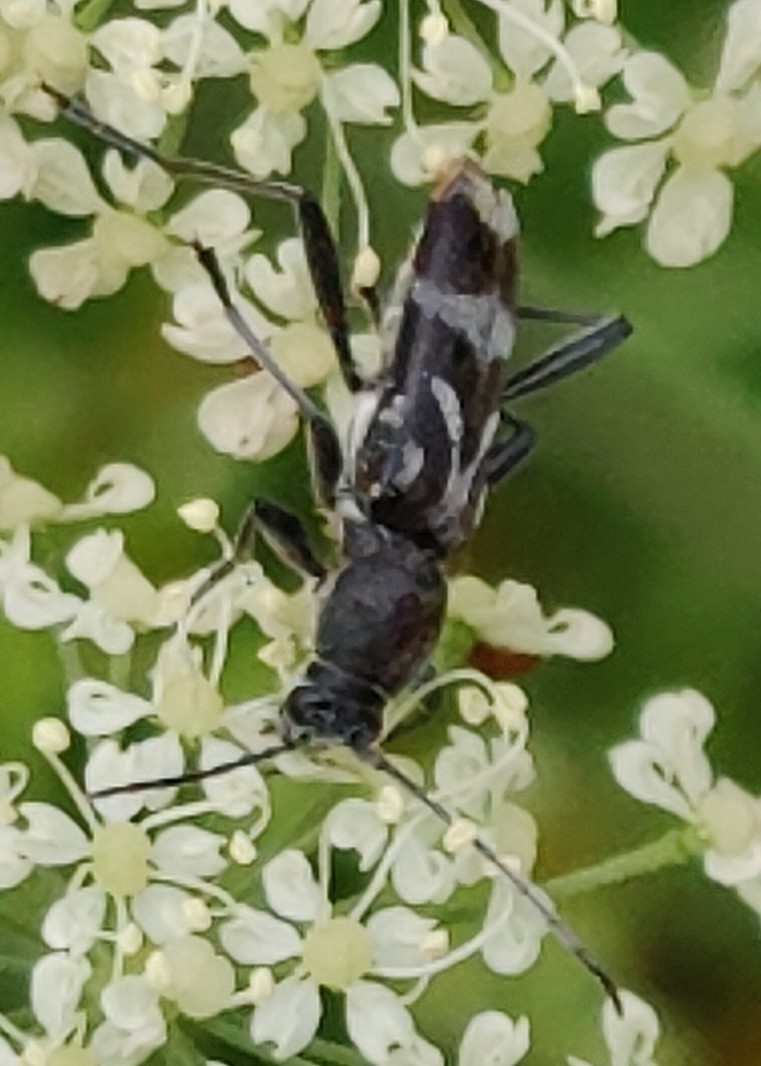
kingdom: Animalia
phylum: Arthropoda
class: Insecta
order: Coleoptera
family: Cerambycidae
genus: Chlorophorus
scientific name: Chlorophorus figuratus
